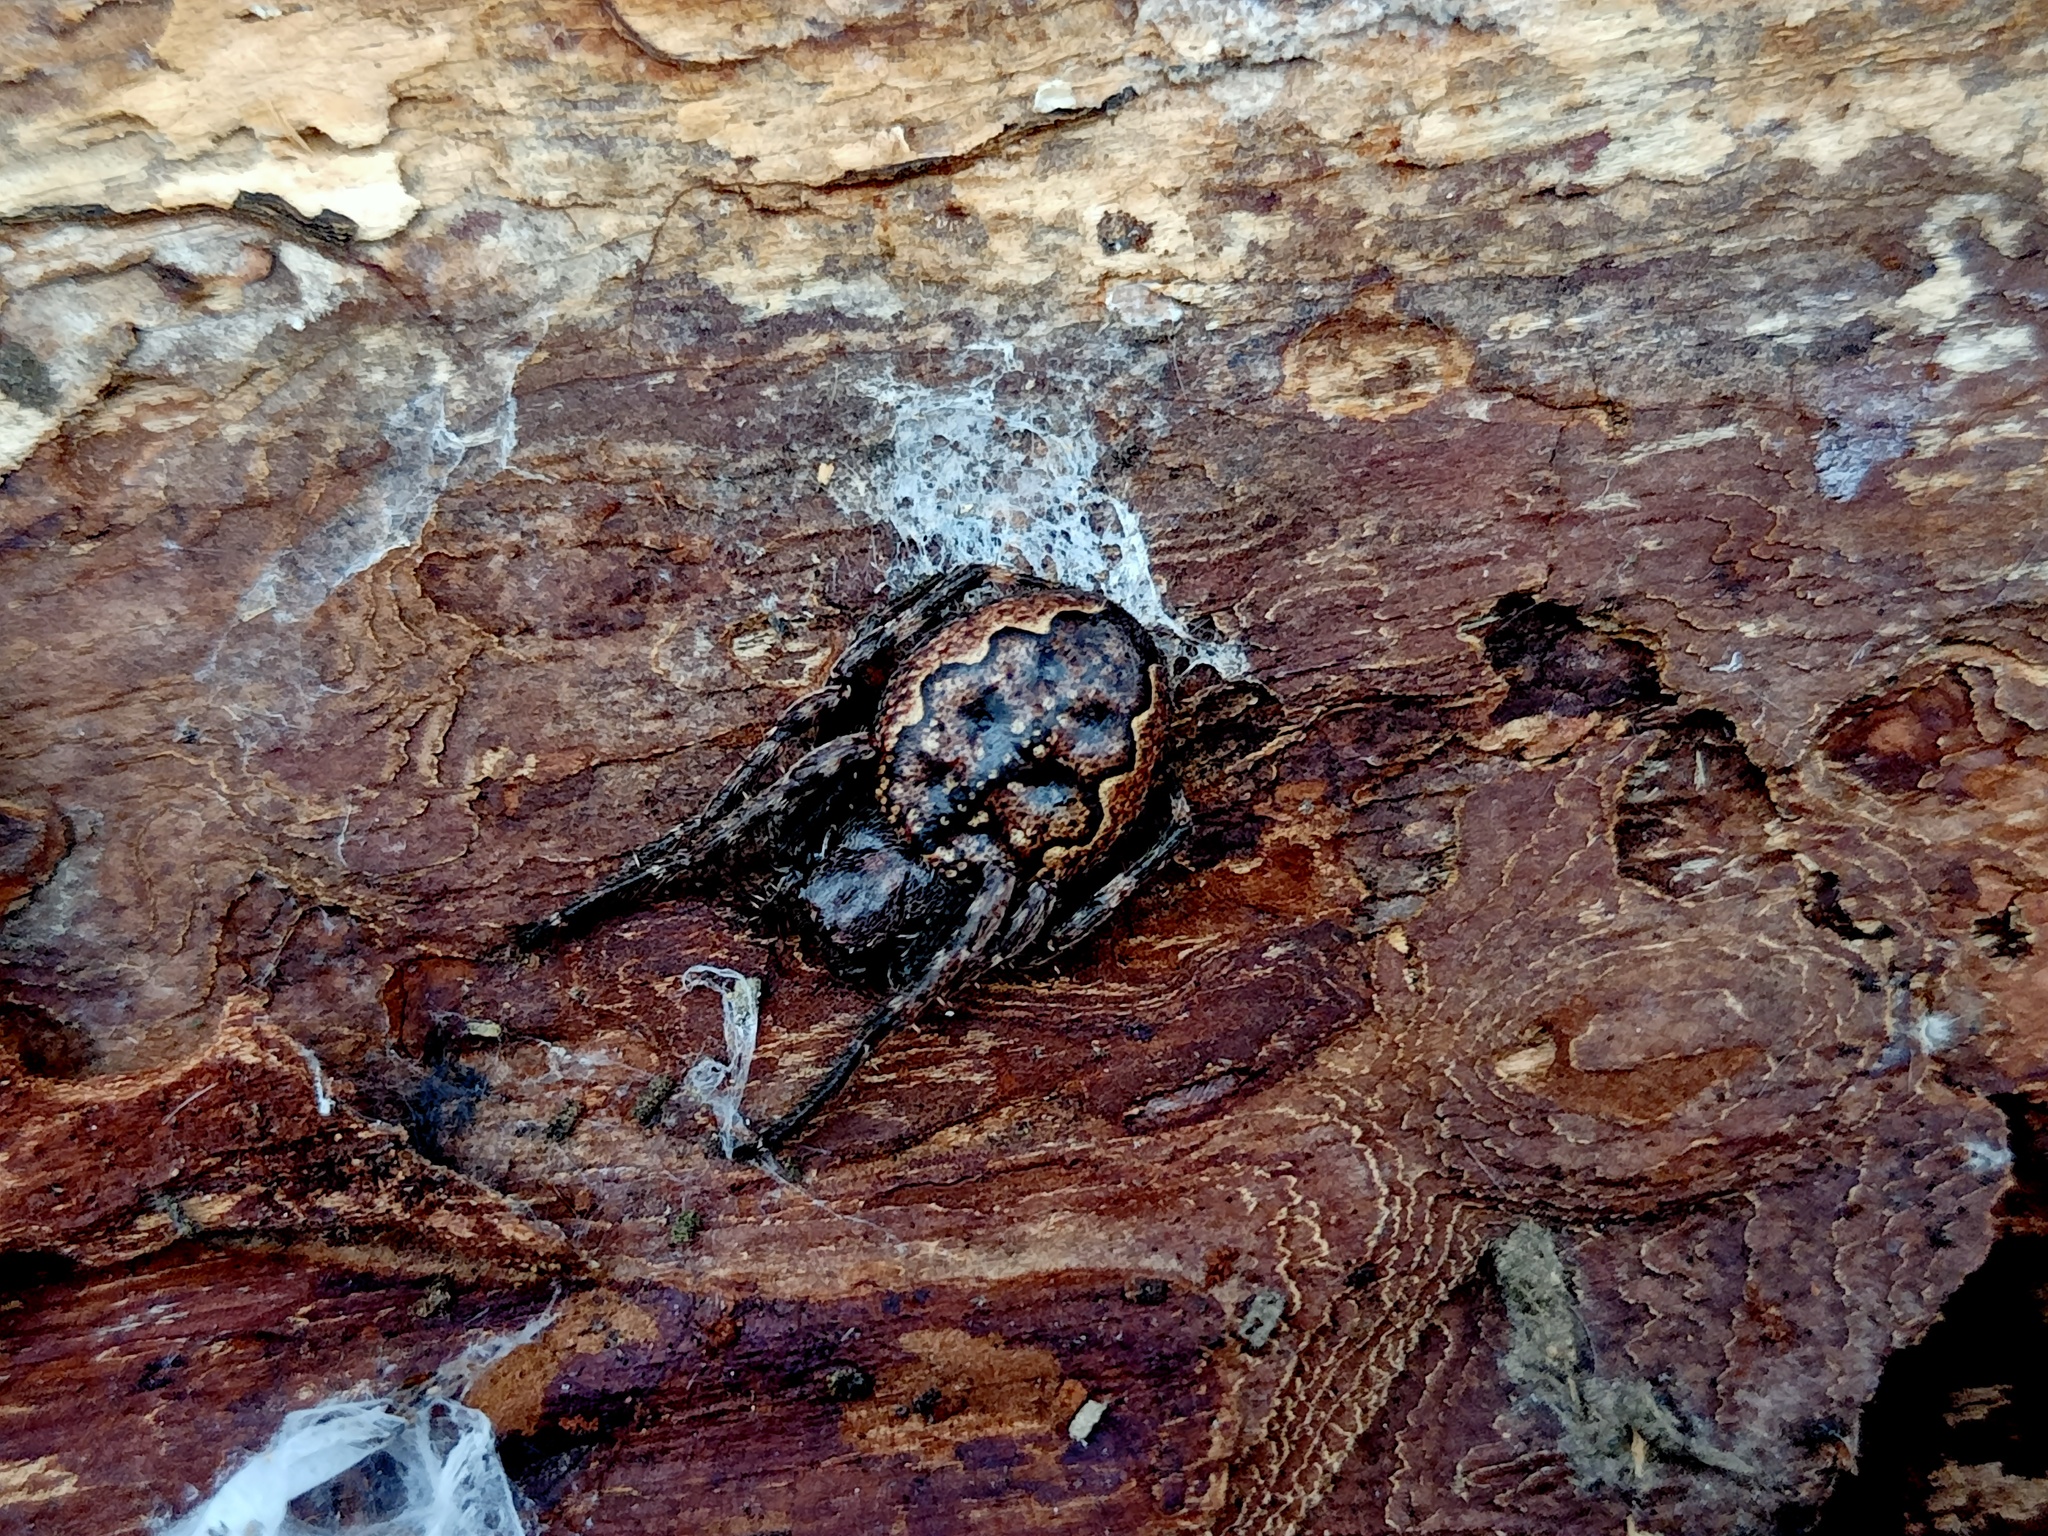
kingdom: Animalia
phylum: Arthropoda
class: Arachnida
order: Araneae
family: Araneidae
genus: Nuctenea
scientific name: Nuctenea umbratica
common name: Toad spider
